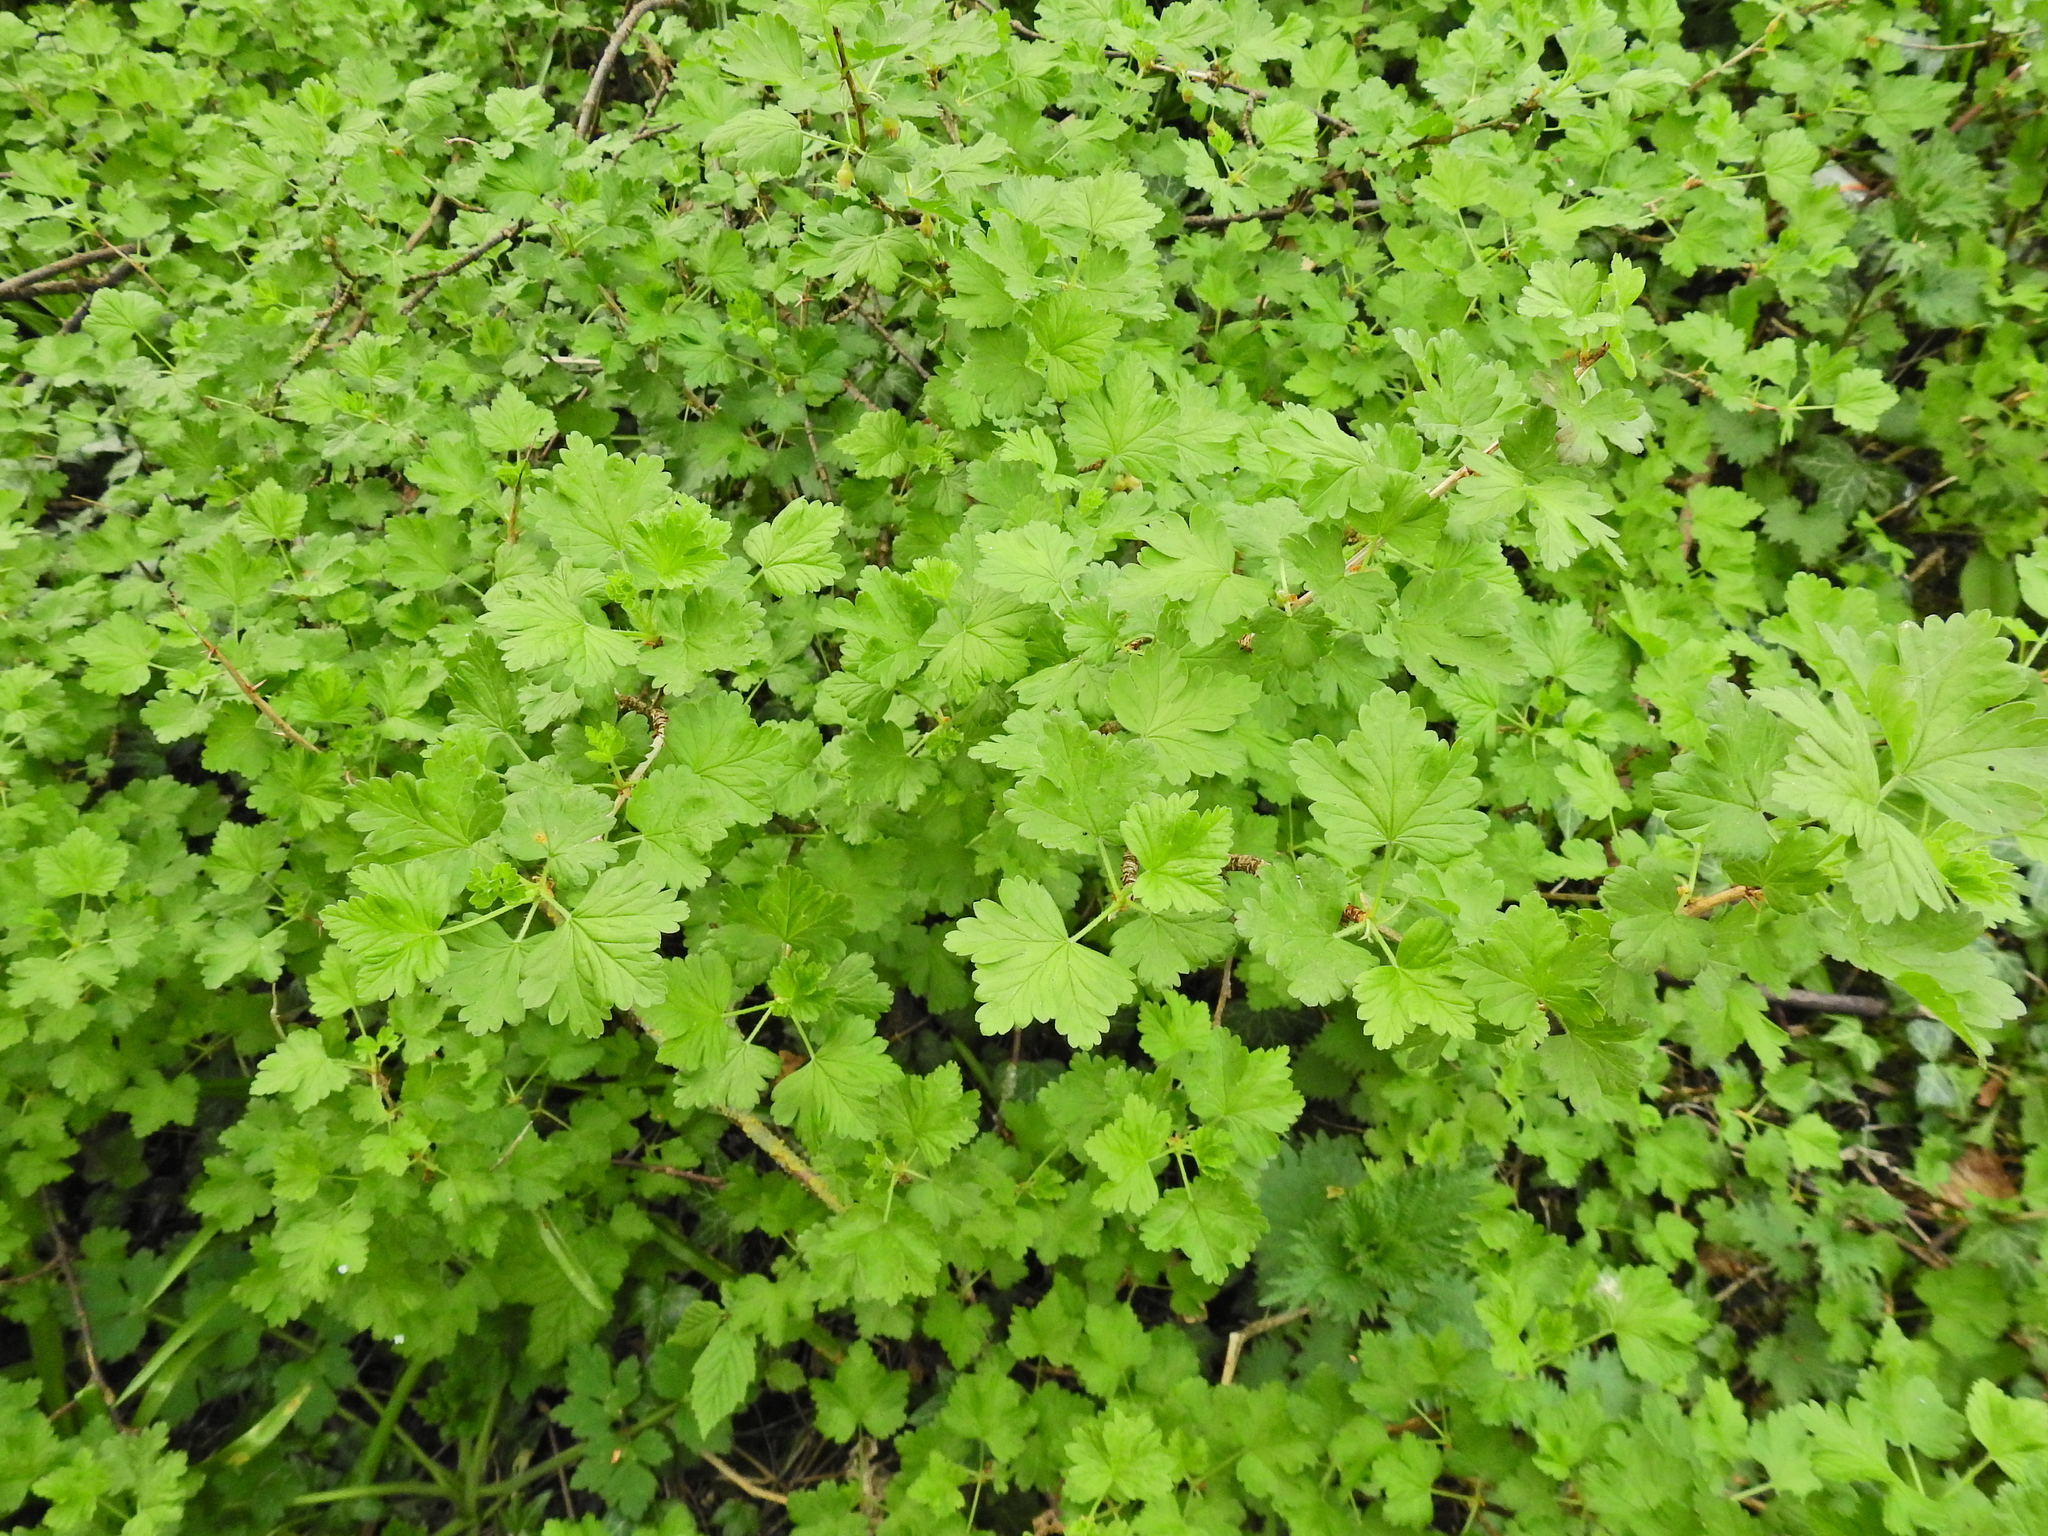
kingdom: Plantae
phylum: Tracheophyta
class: Magnoliopsida
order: Saxifragales
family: Grossulariaceae
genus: Ribes
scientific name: Ribes uva-crispa
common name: Gooseberry
